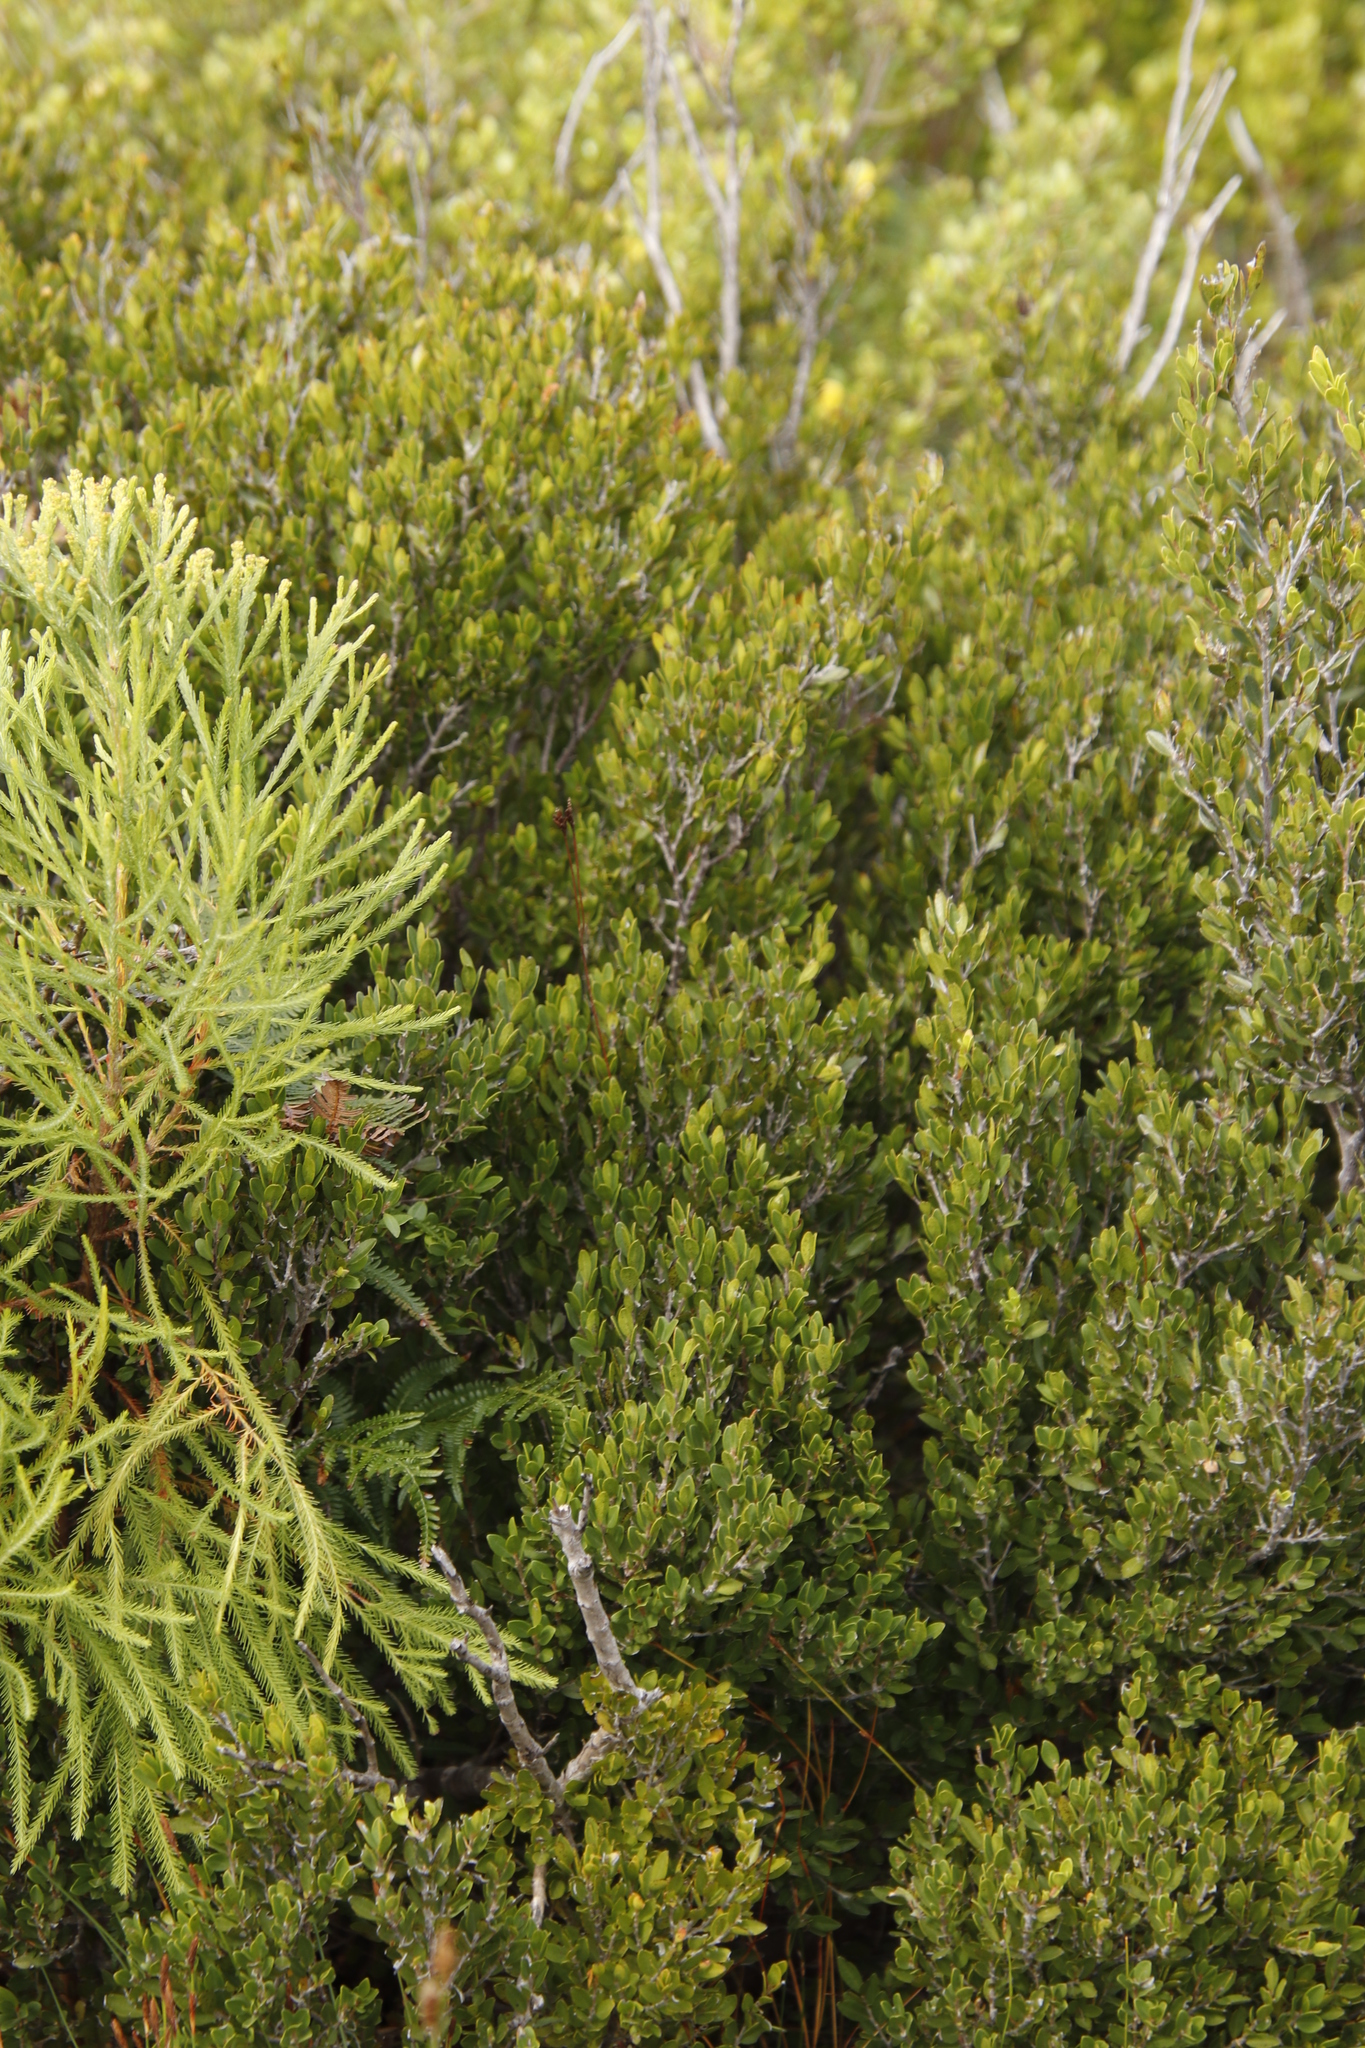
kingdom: Plantae
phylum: Tracheophyta
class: Magnoliopsida
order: Ericales
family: Ebenaceae
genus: Diospyros
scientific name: Diospyros glabra
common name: Fynbos star apple
